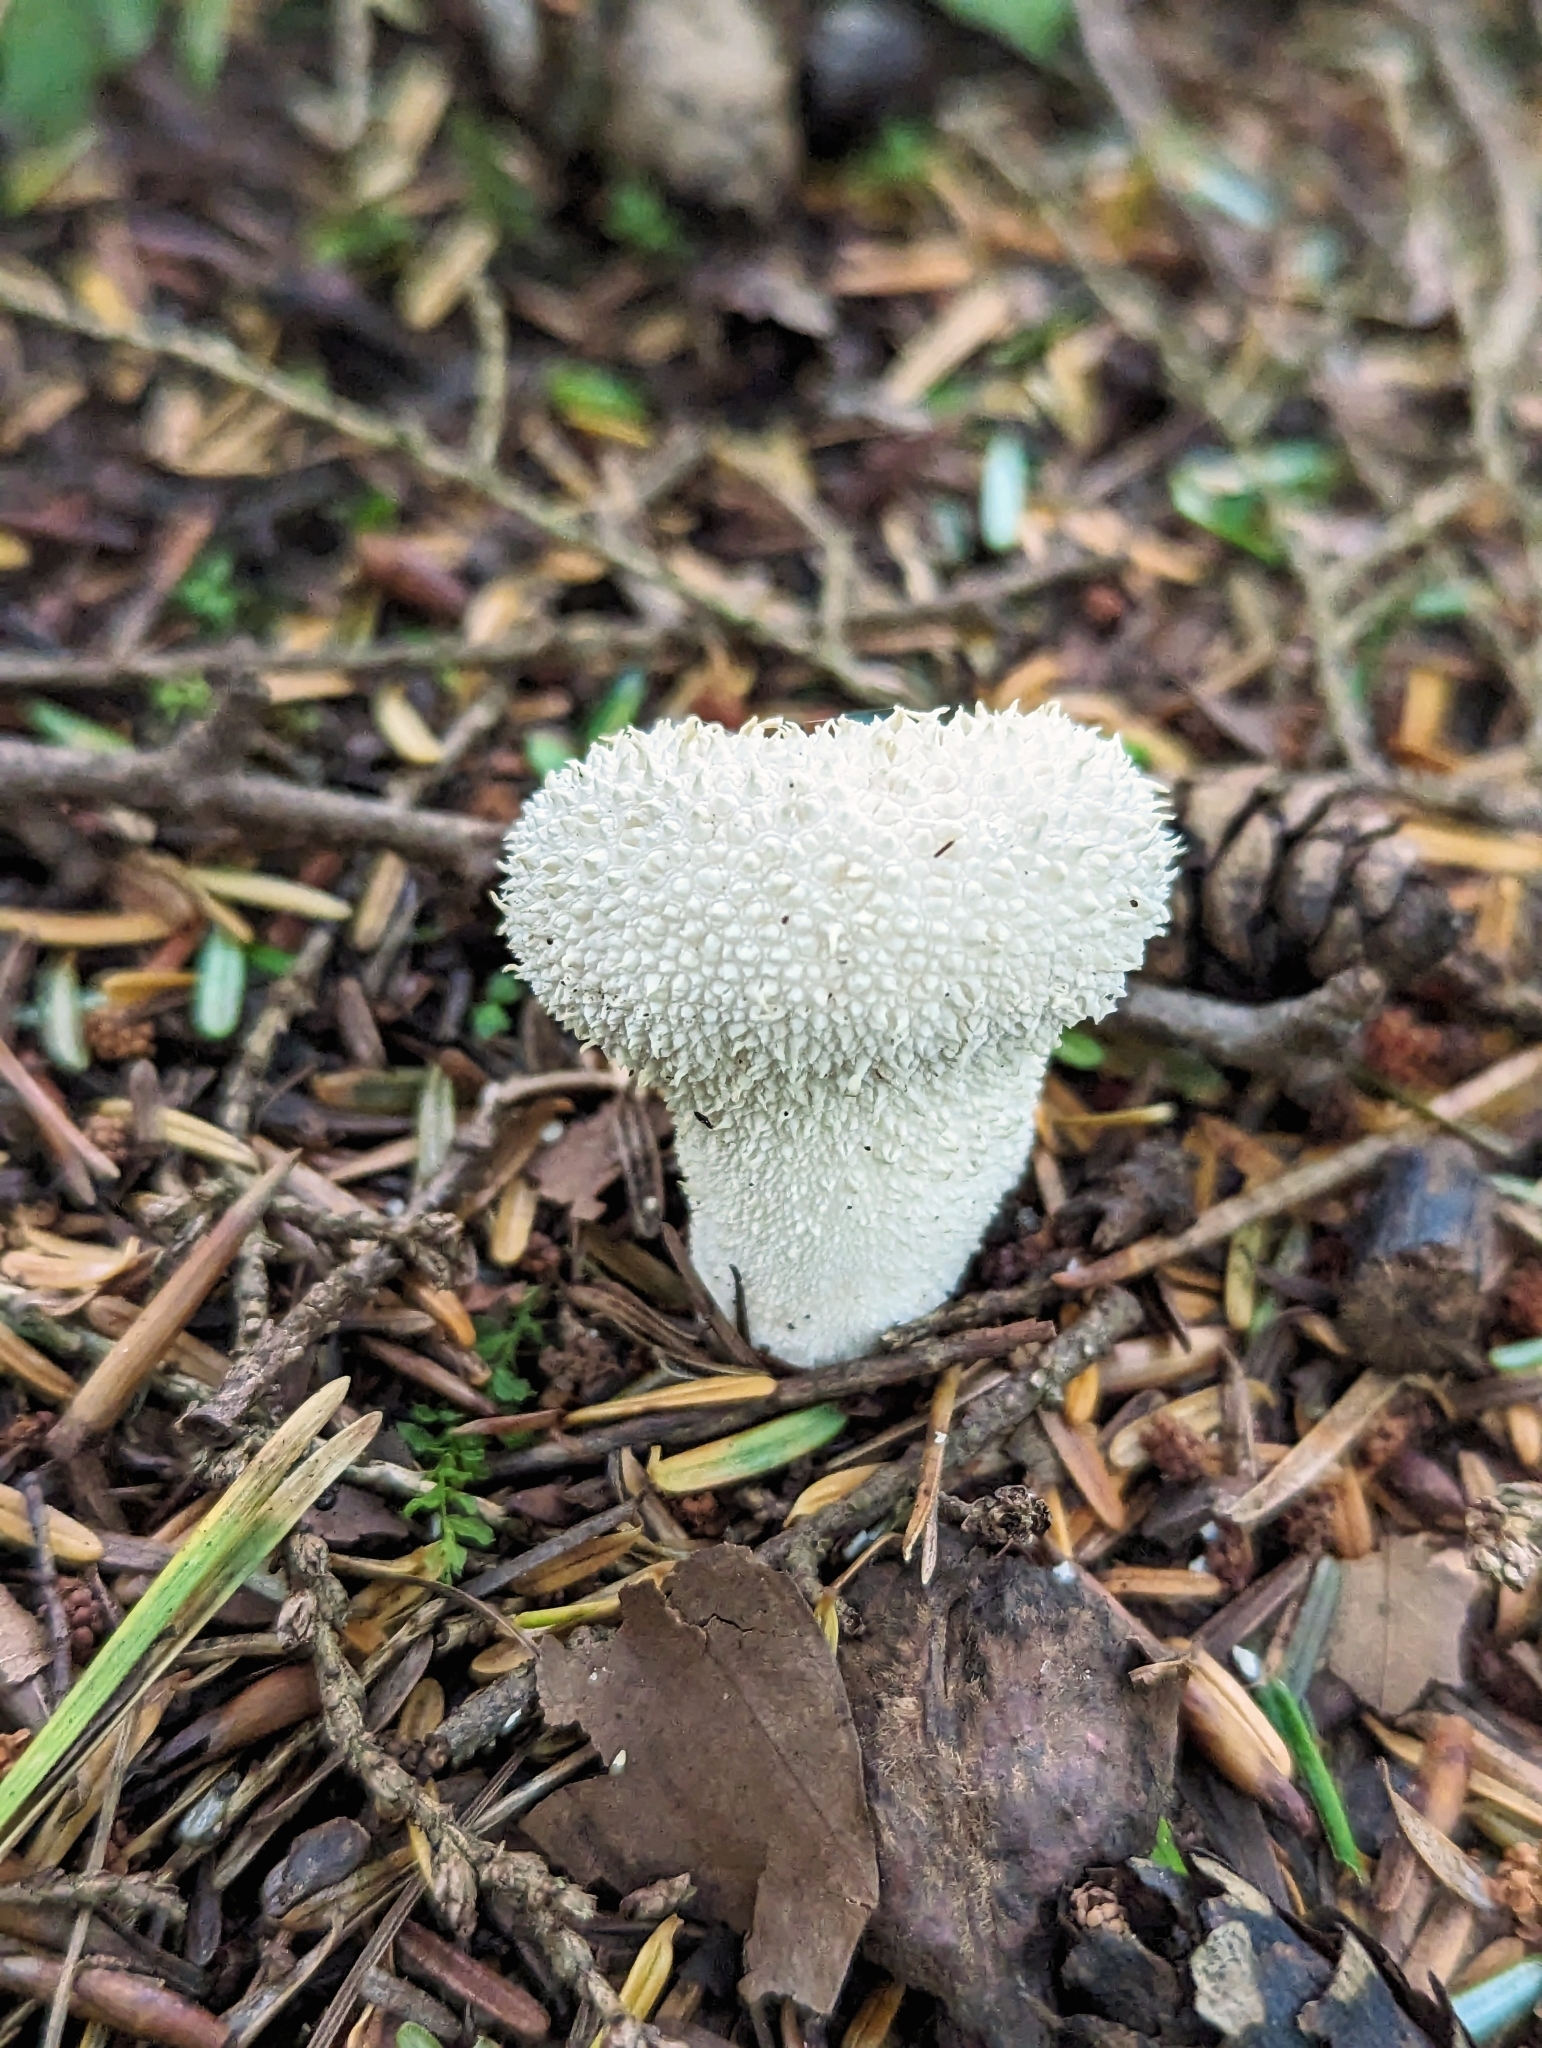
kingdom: Fungi
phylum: Basidiomycota
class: Agaricomycetes
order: Agaricales
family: Lycoperdaceae
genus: Lycoperdon
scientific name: Lycoperdon perlatum
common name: Common puffball
